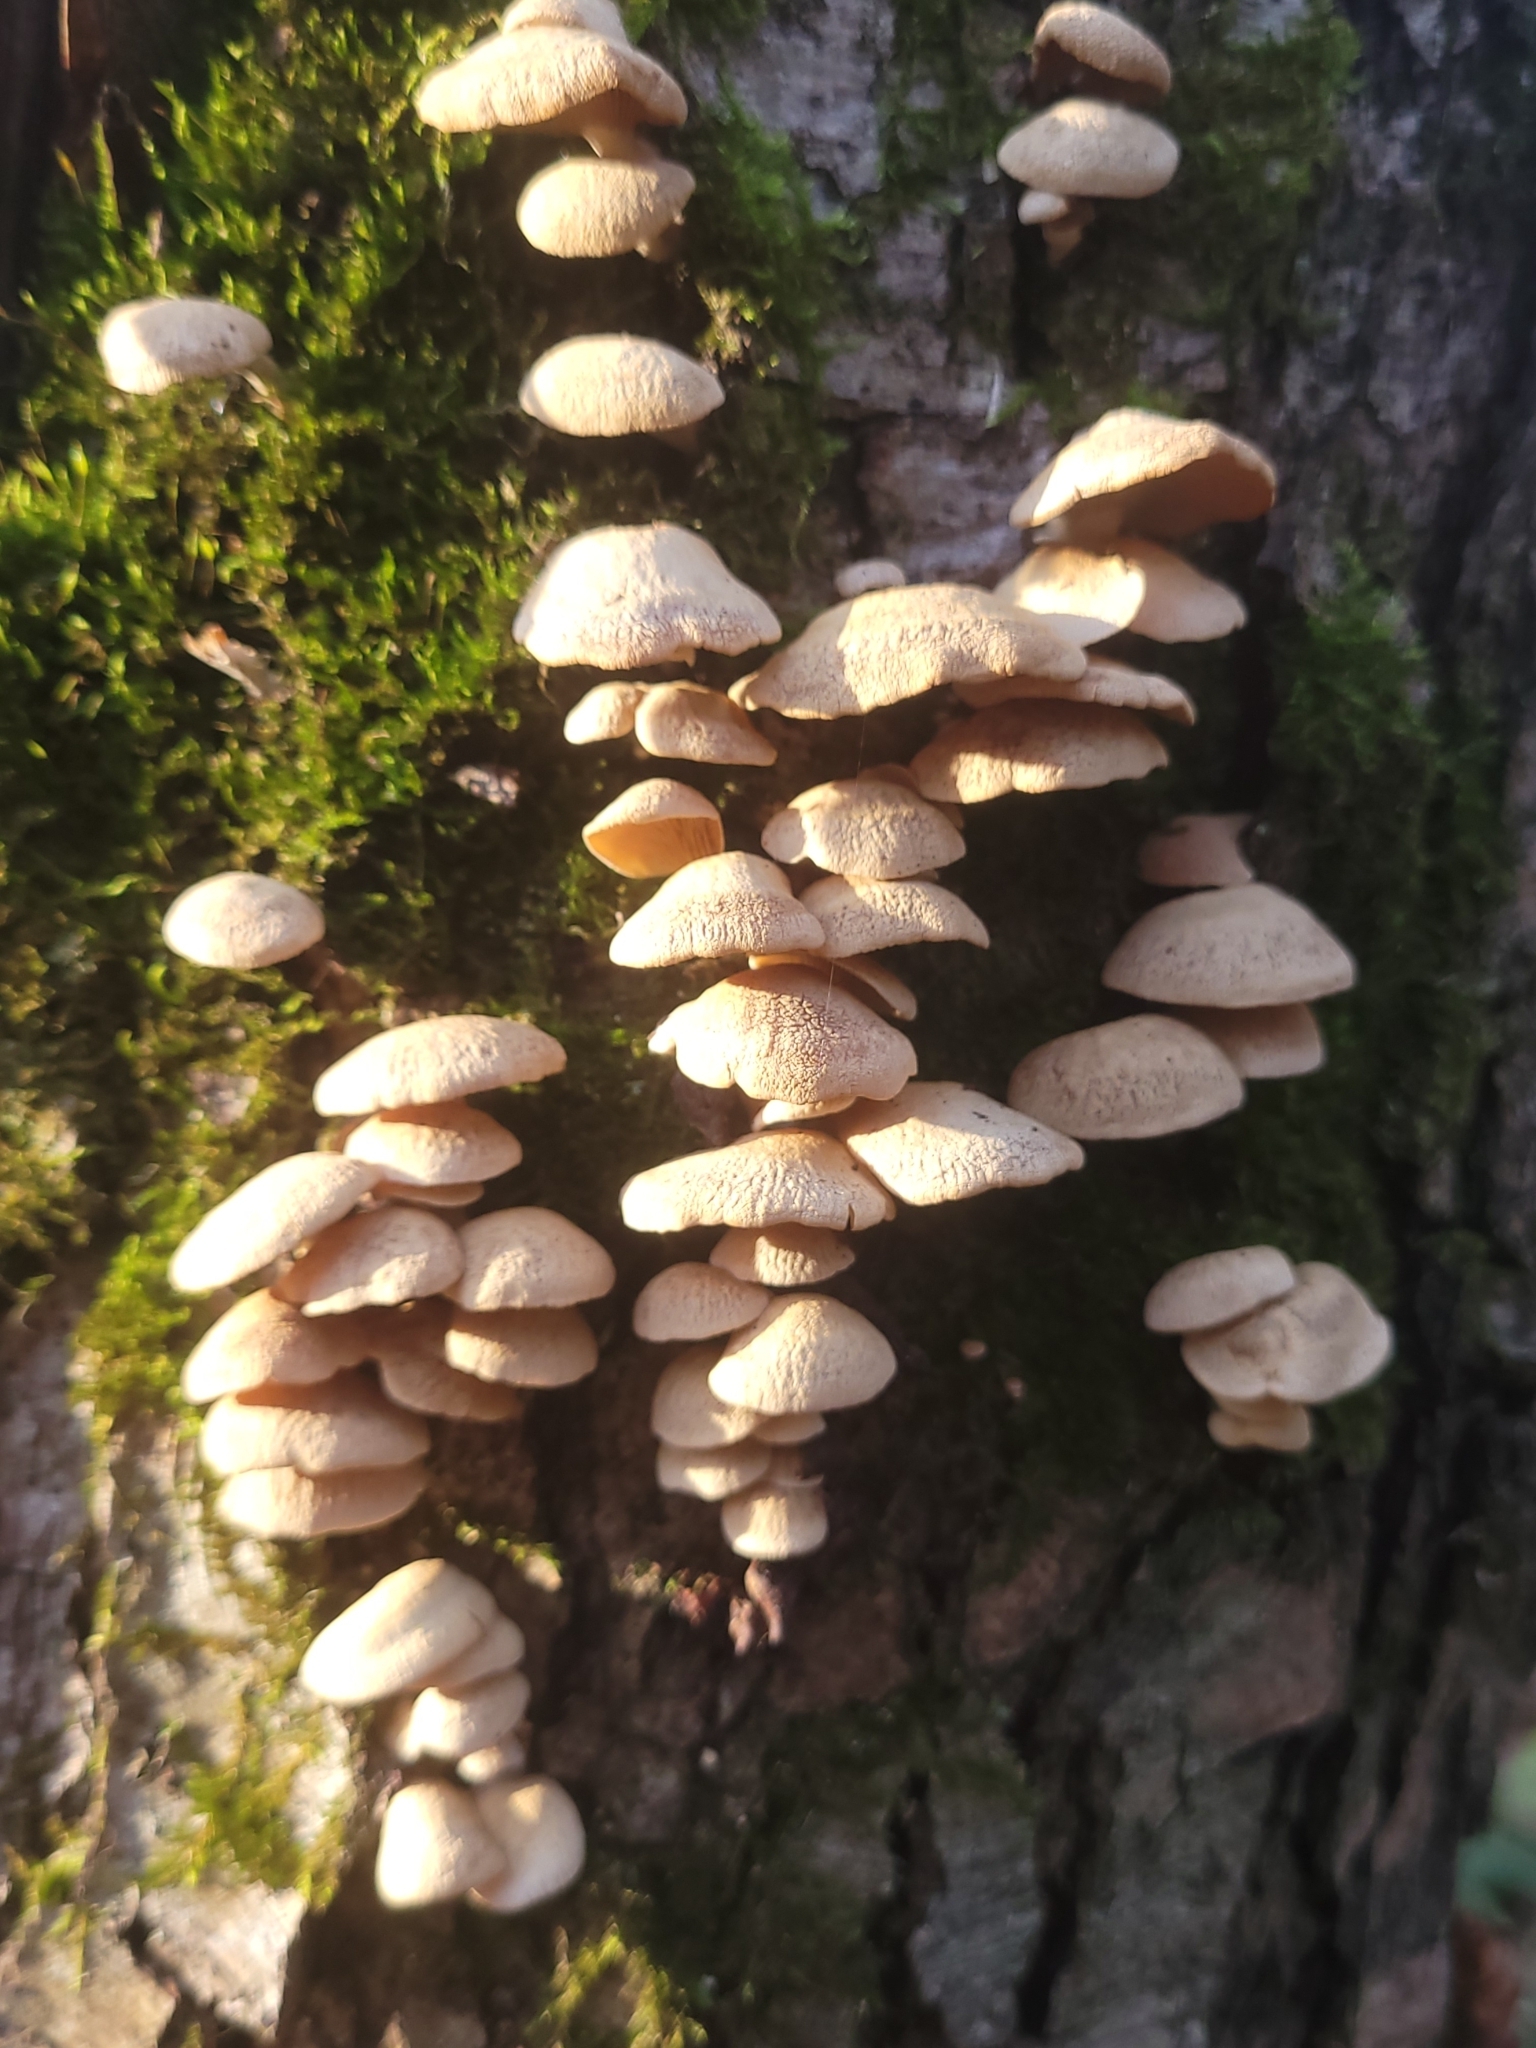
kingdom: Fungi
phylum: Basidiomycota
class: Agaricomycetes
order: Agaricales
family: Mycenaceae
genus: Panellus
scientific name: Panellus stipticus
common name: Bitter oysterling
